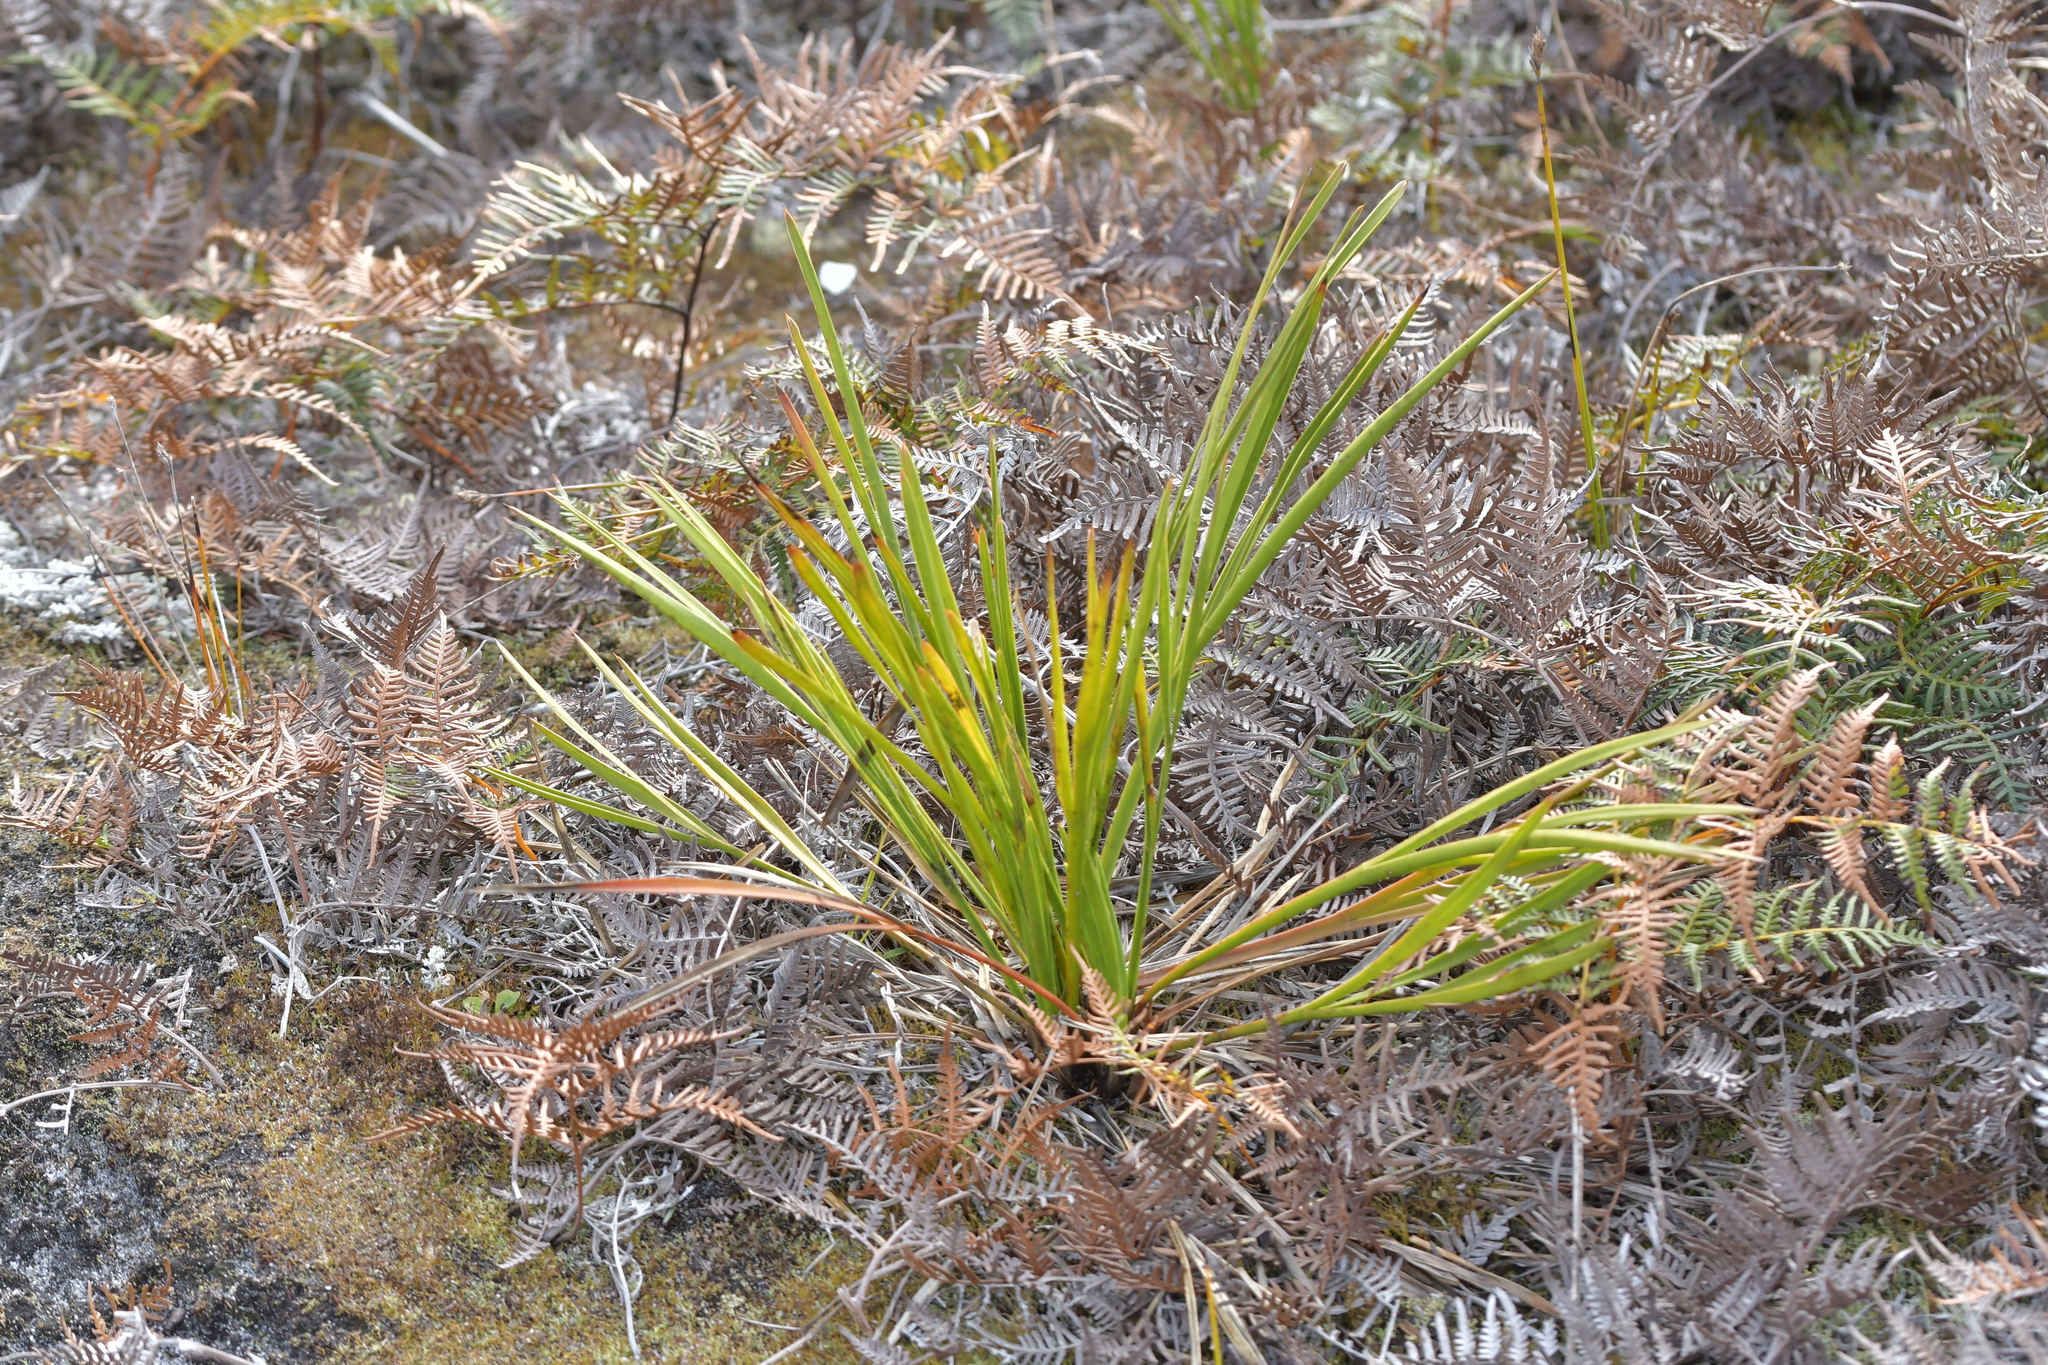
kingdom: Plantae
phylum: Tracheophyta
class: Magnoliopsida
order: Apiales
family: Apiaceae
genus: Aciphylla
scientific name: Aciphylla traversii
